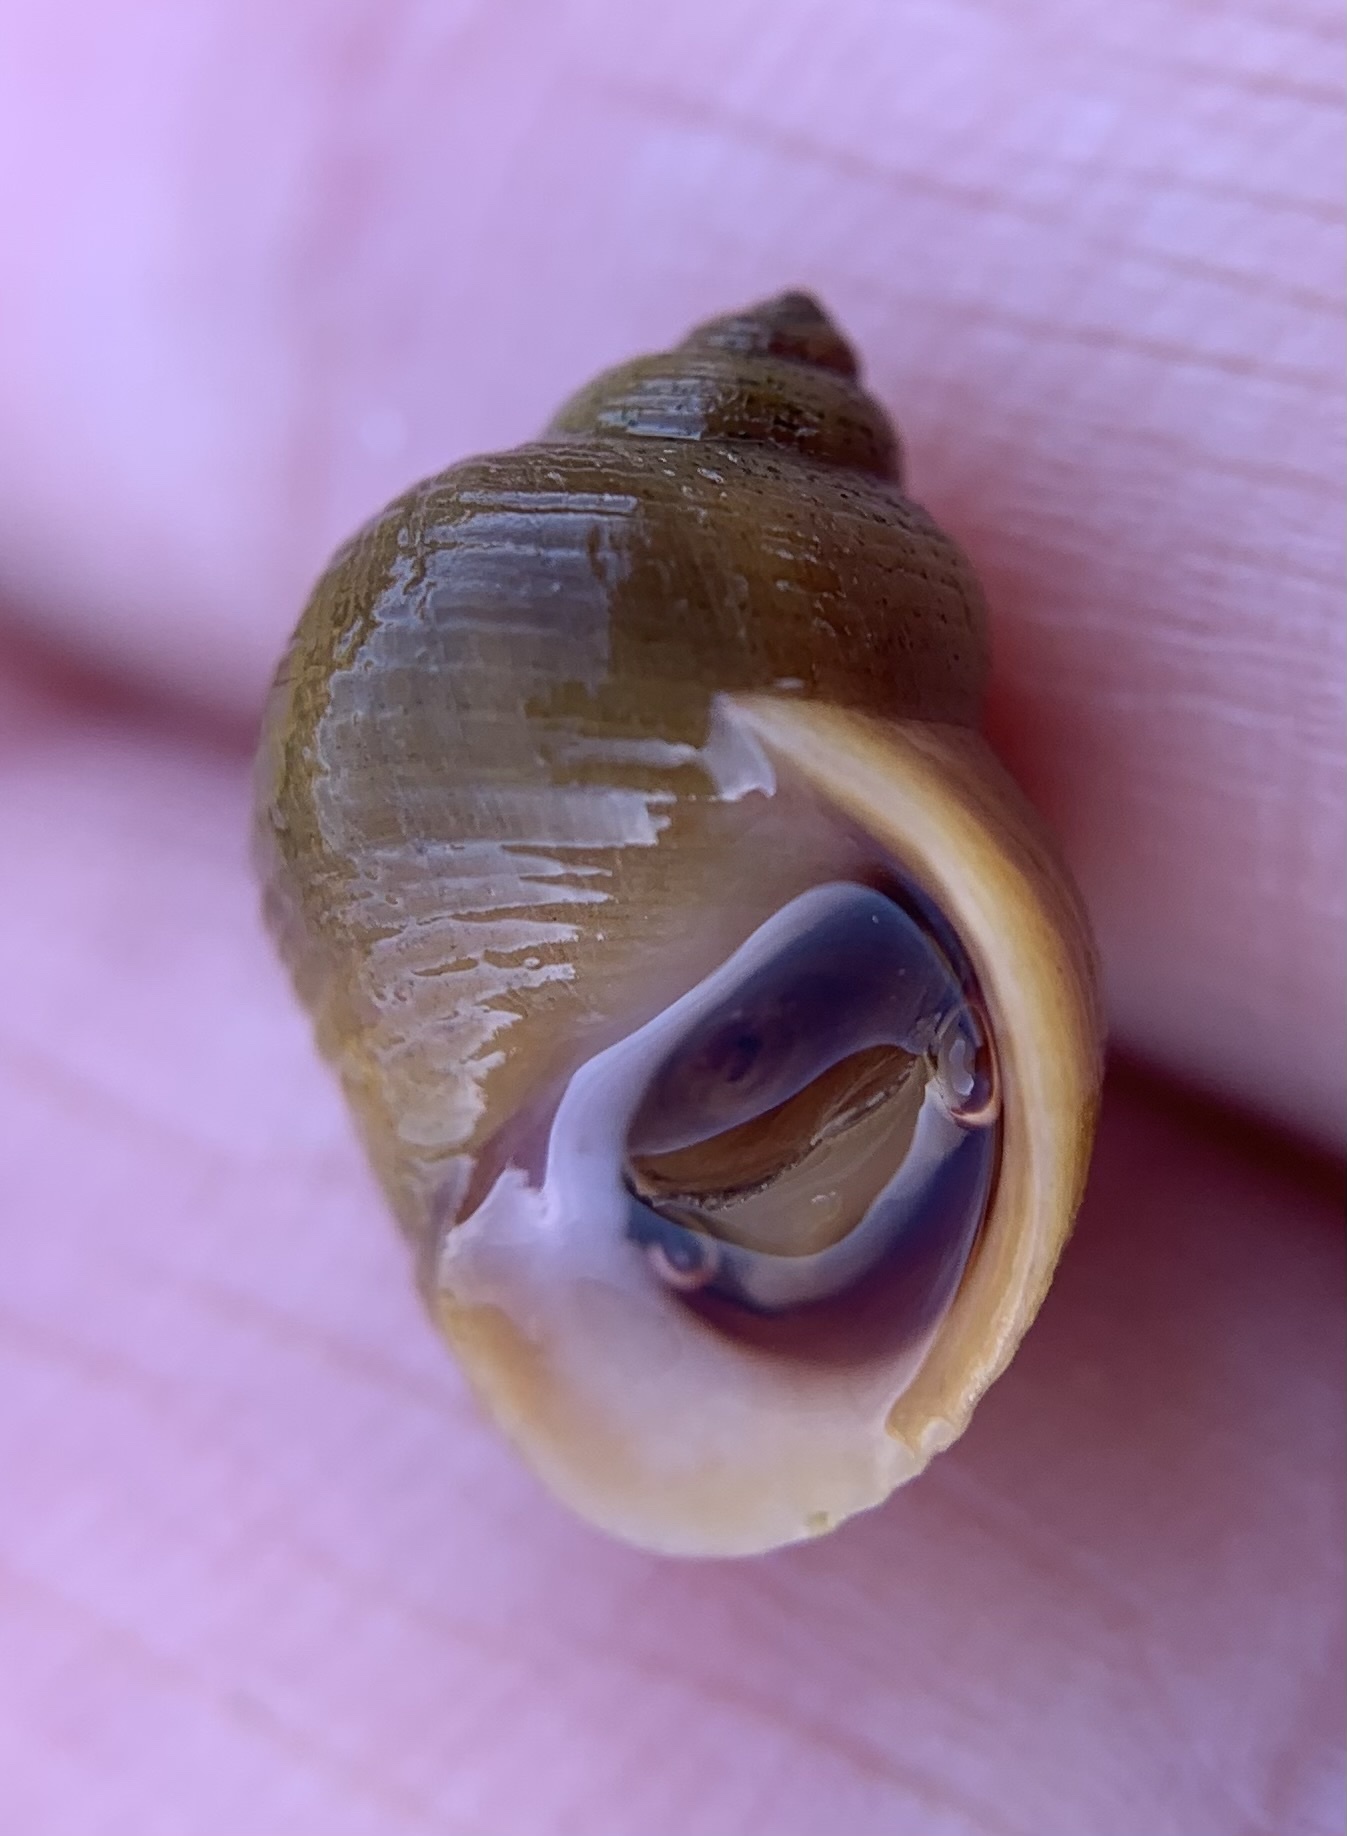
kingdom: Animalia
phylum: Mollusca
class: Gastropoda
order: Littorinimorpha
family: Littorinidae
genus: Littorina
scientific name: Littorina saxatilis
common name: Black-lined periwinkle
